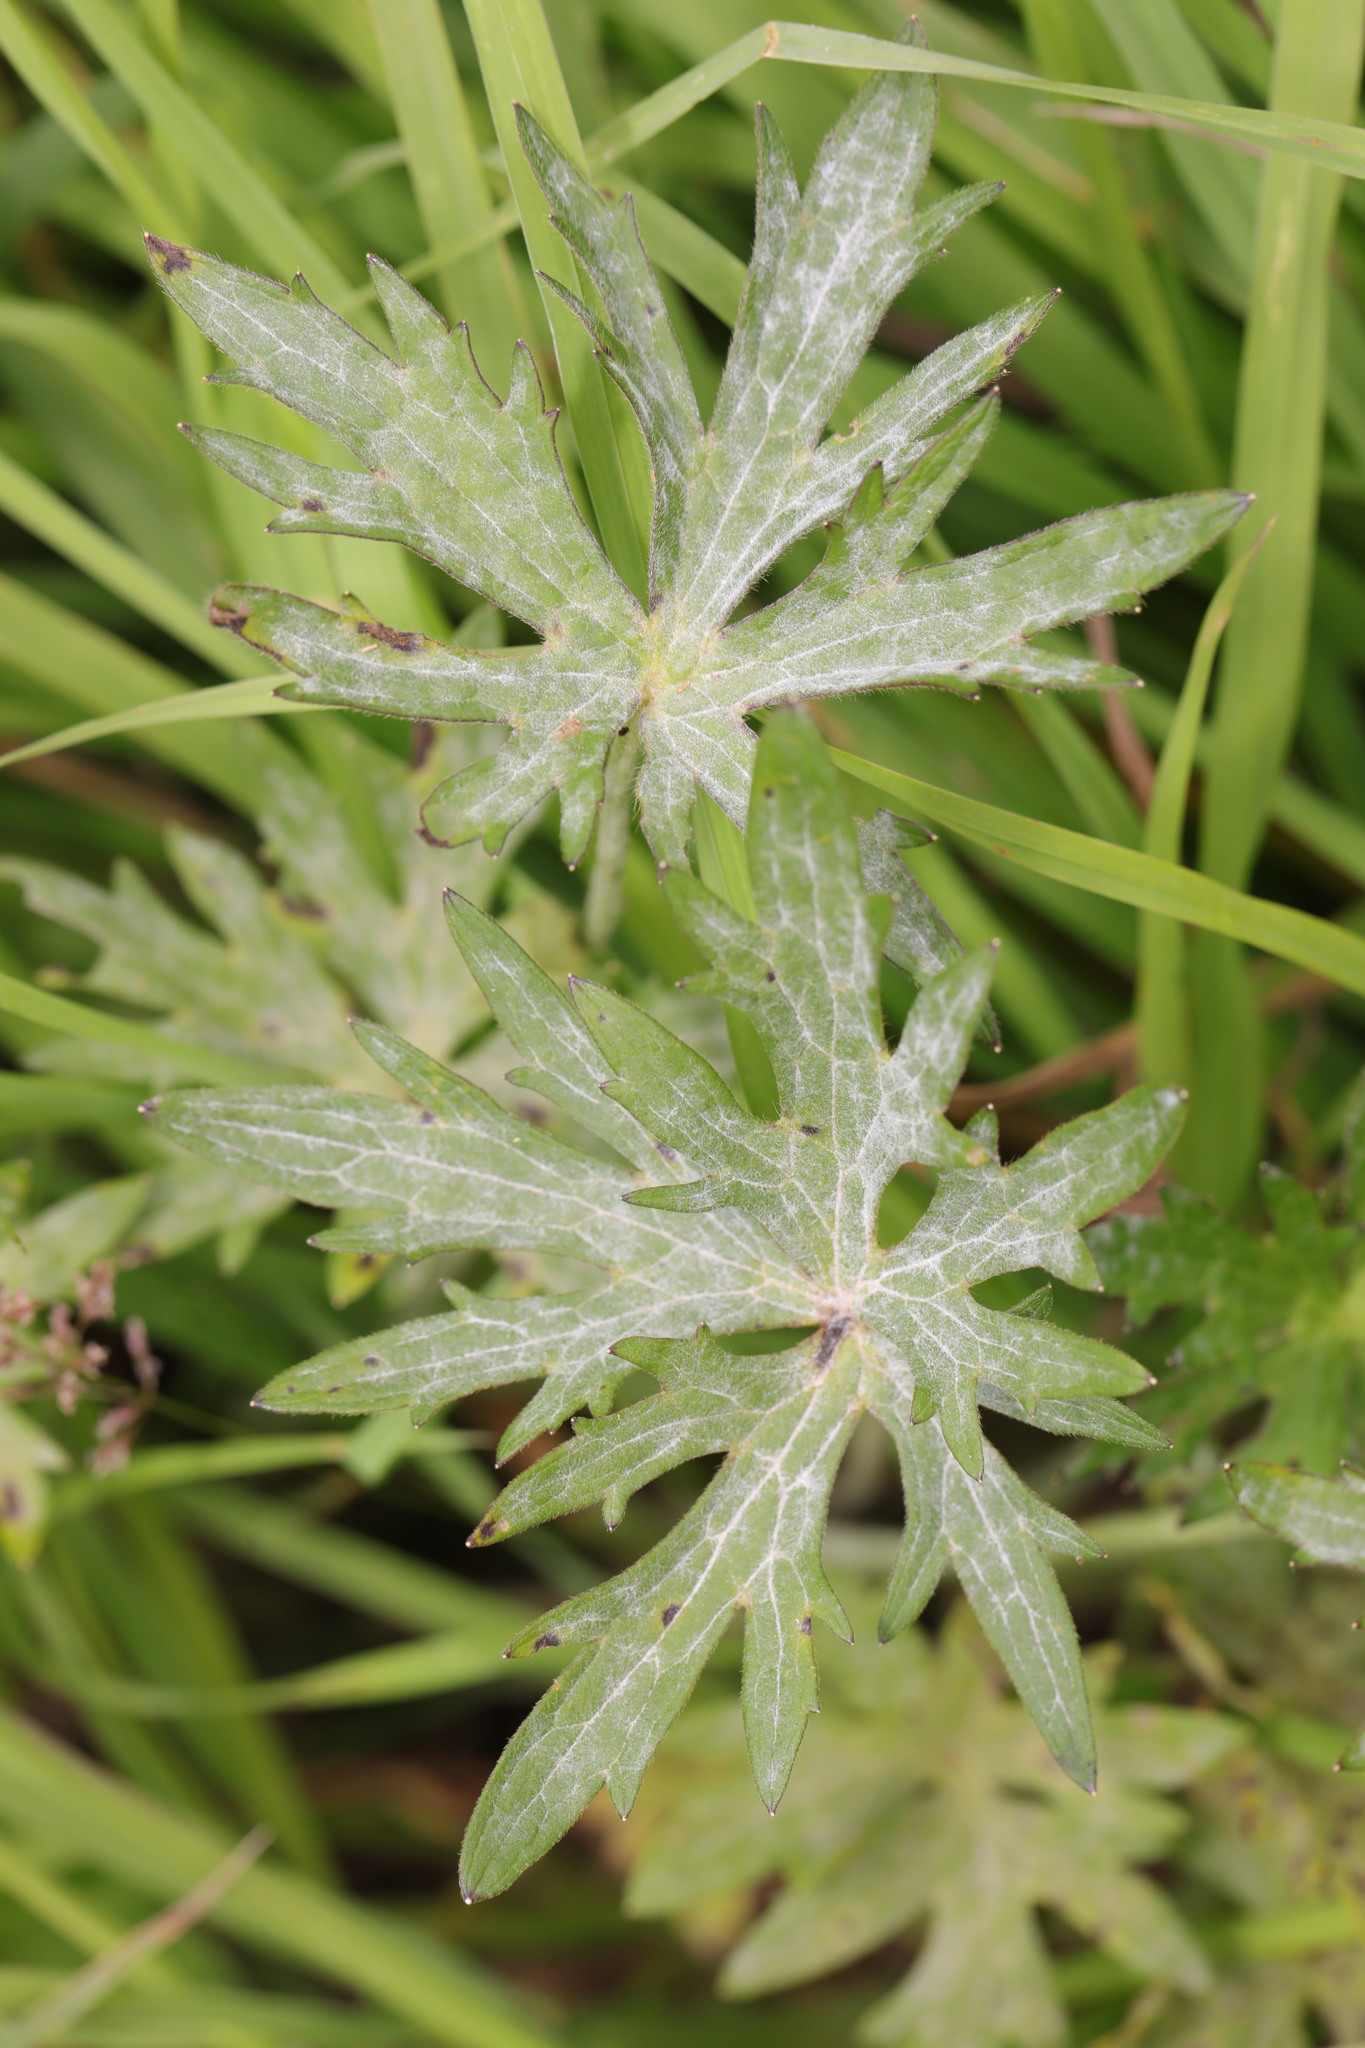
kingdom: Plantae
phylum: Tracheophyta
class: Magnoliopsida
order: Ranunculales
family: Ranunculaceae
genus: Ranunculus
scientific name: Ranunculus acris
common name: Meadow buttercup
